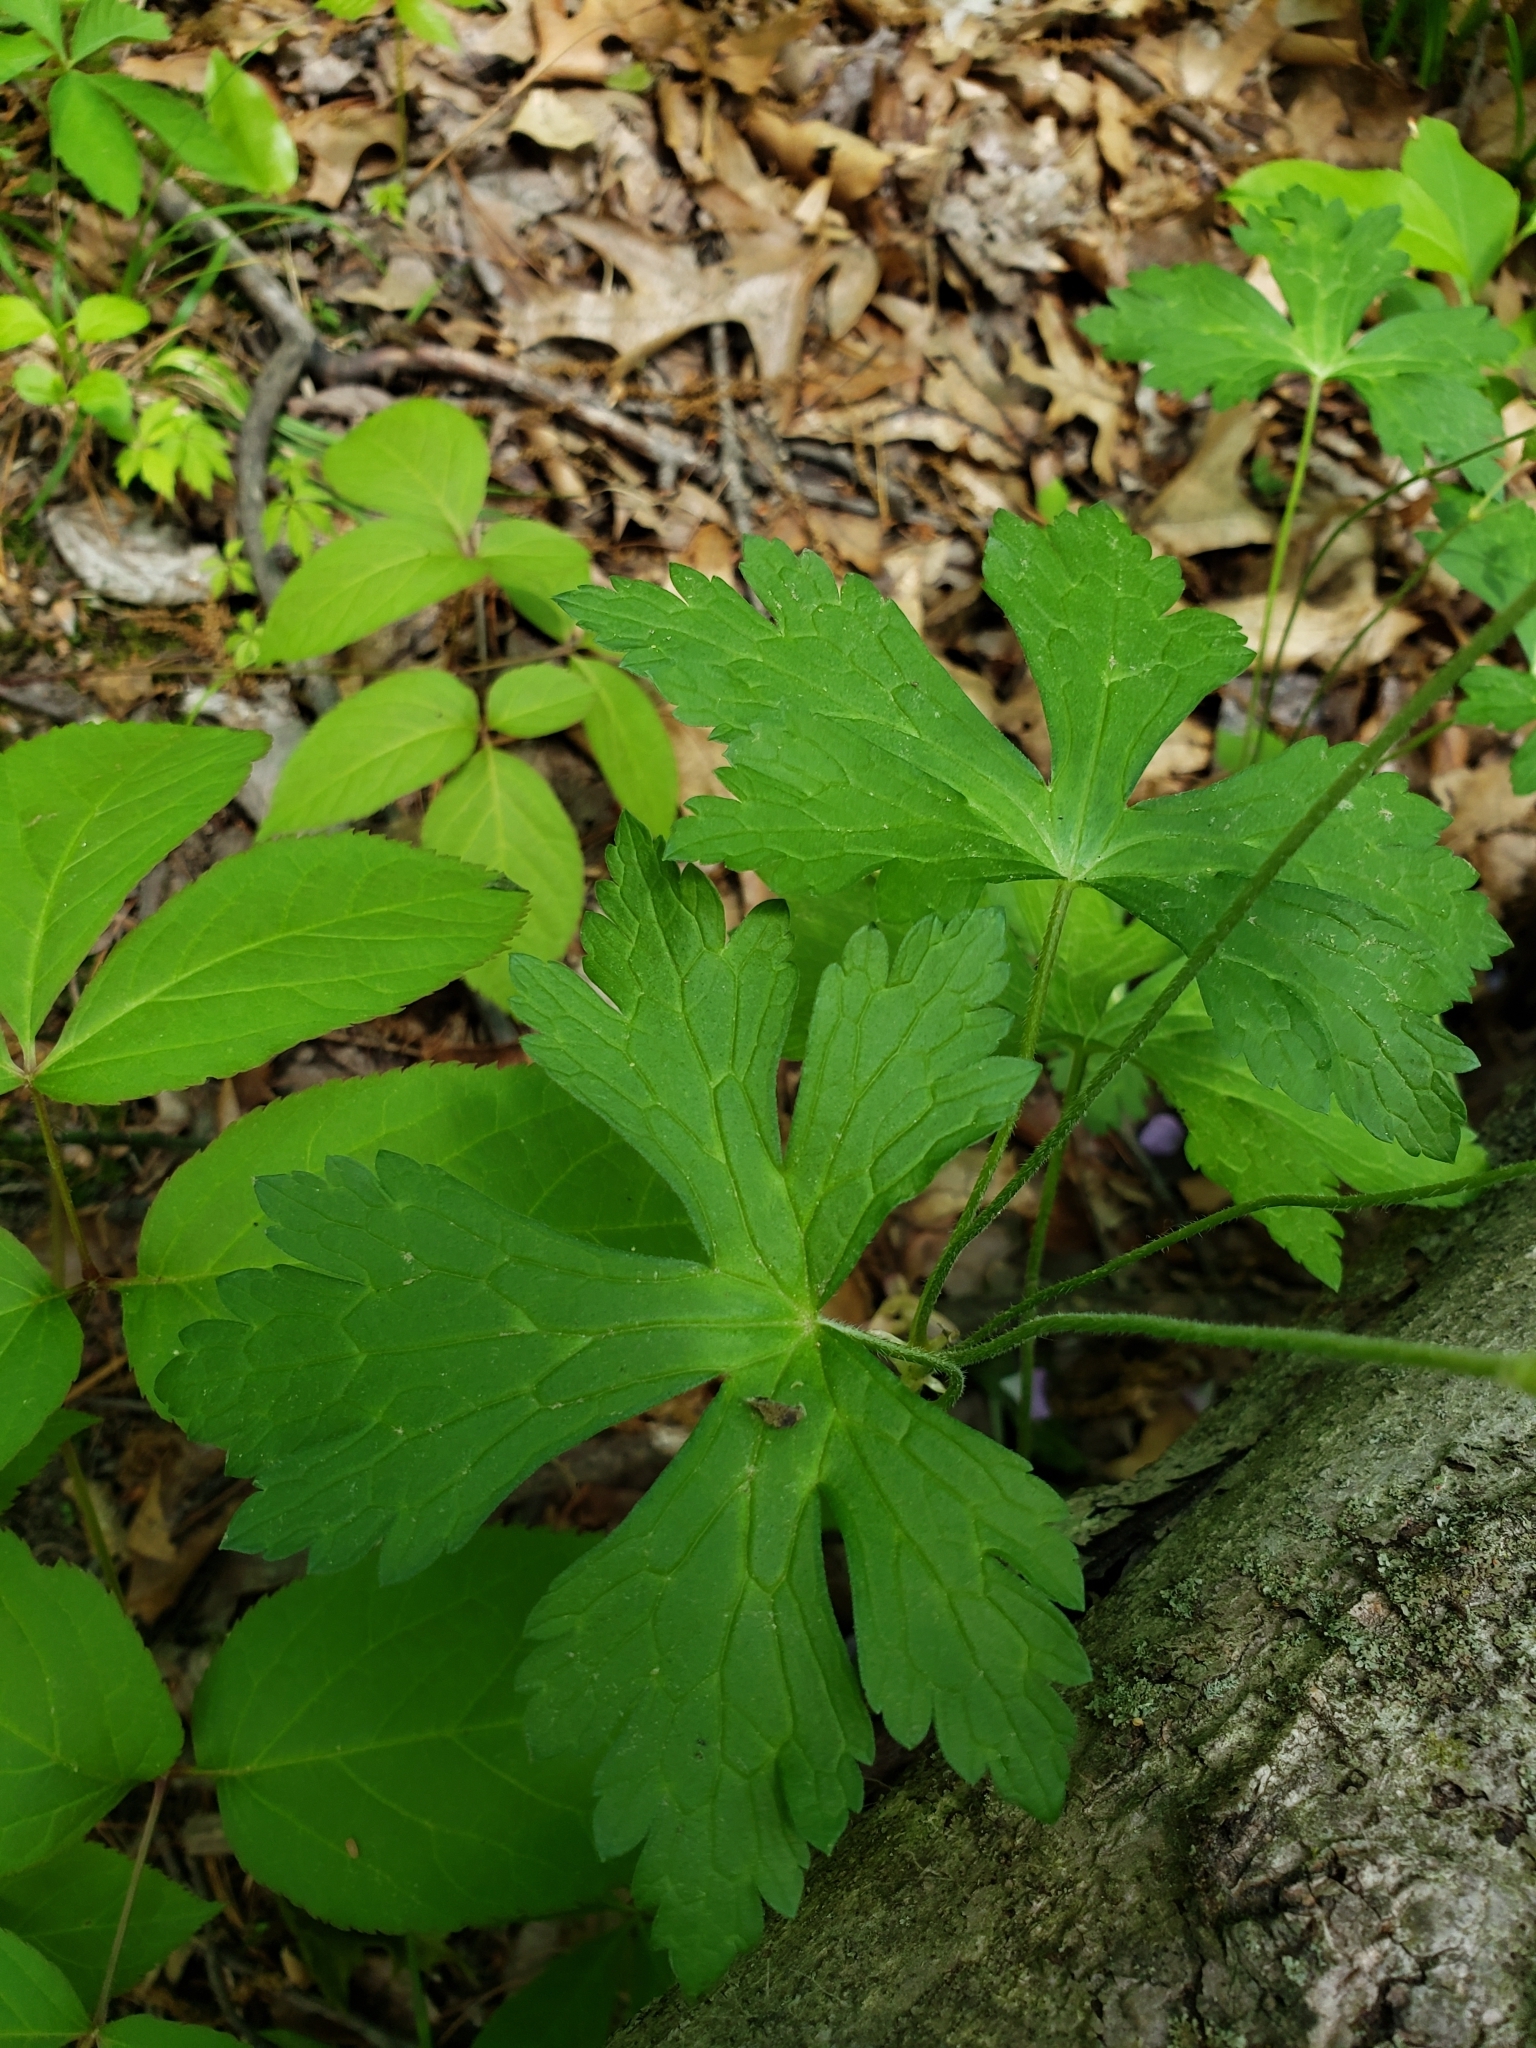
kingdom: Plantae
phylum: Tracheophyta
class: Magnoliopsida
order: Geraniales
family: Geraniaceae
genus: Geranium
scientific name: Geranium maculatum
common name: Spotted geranium
